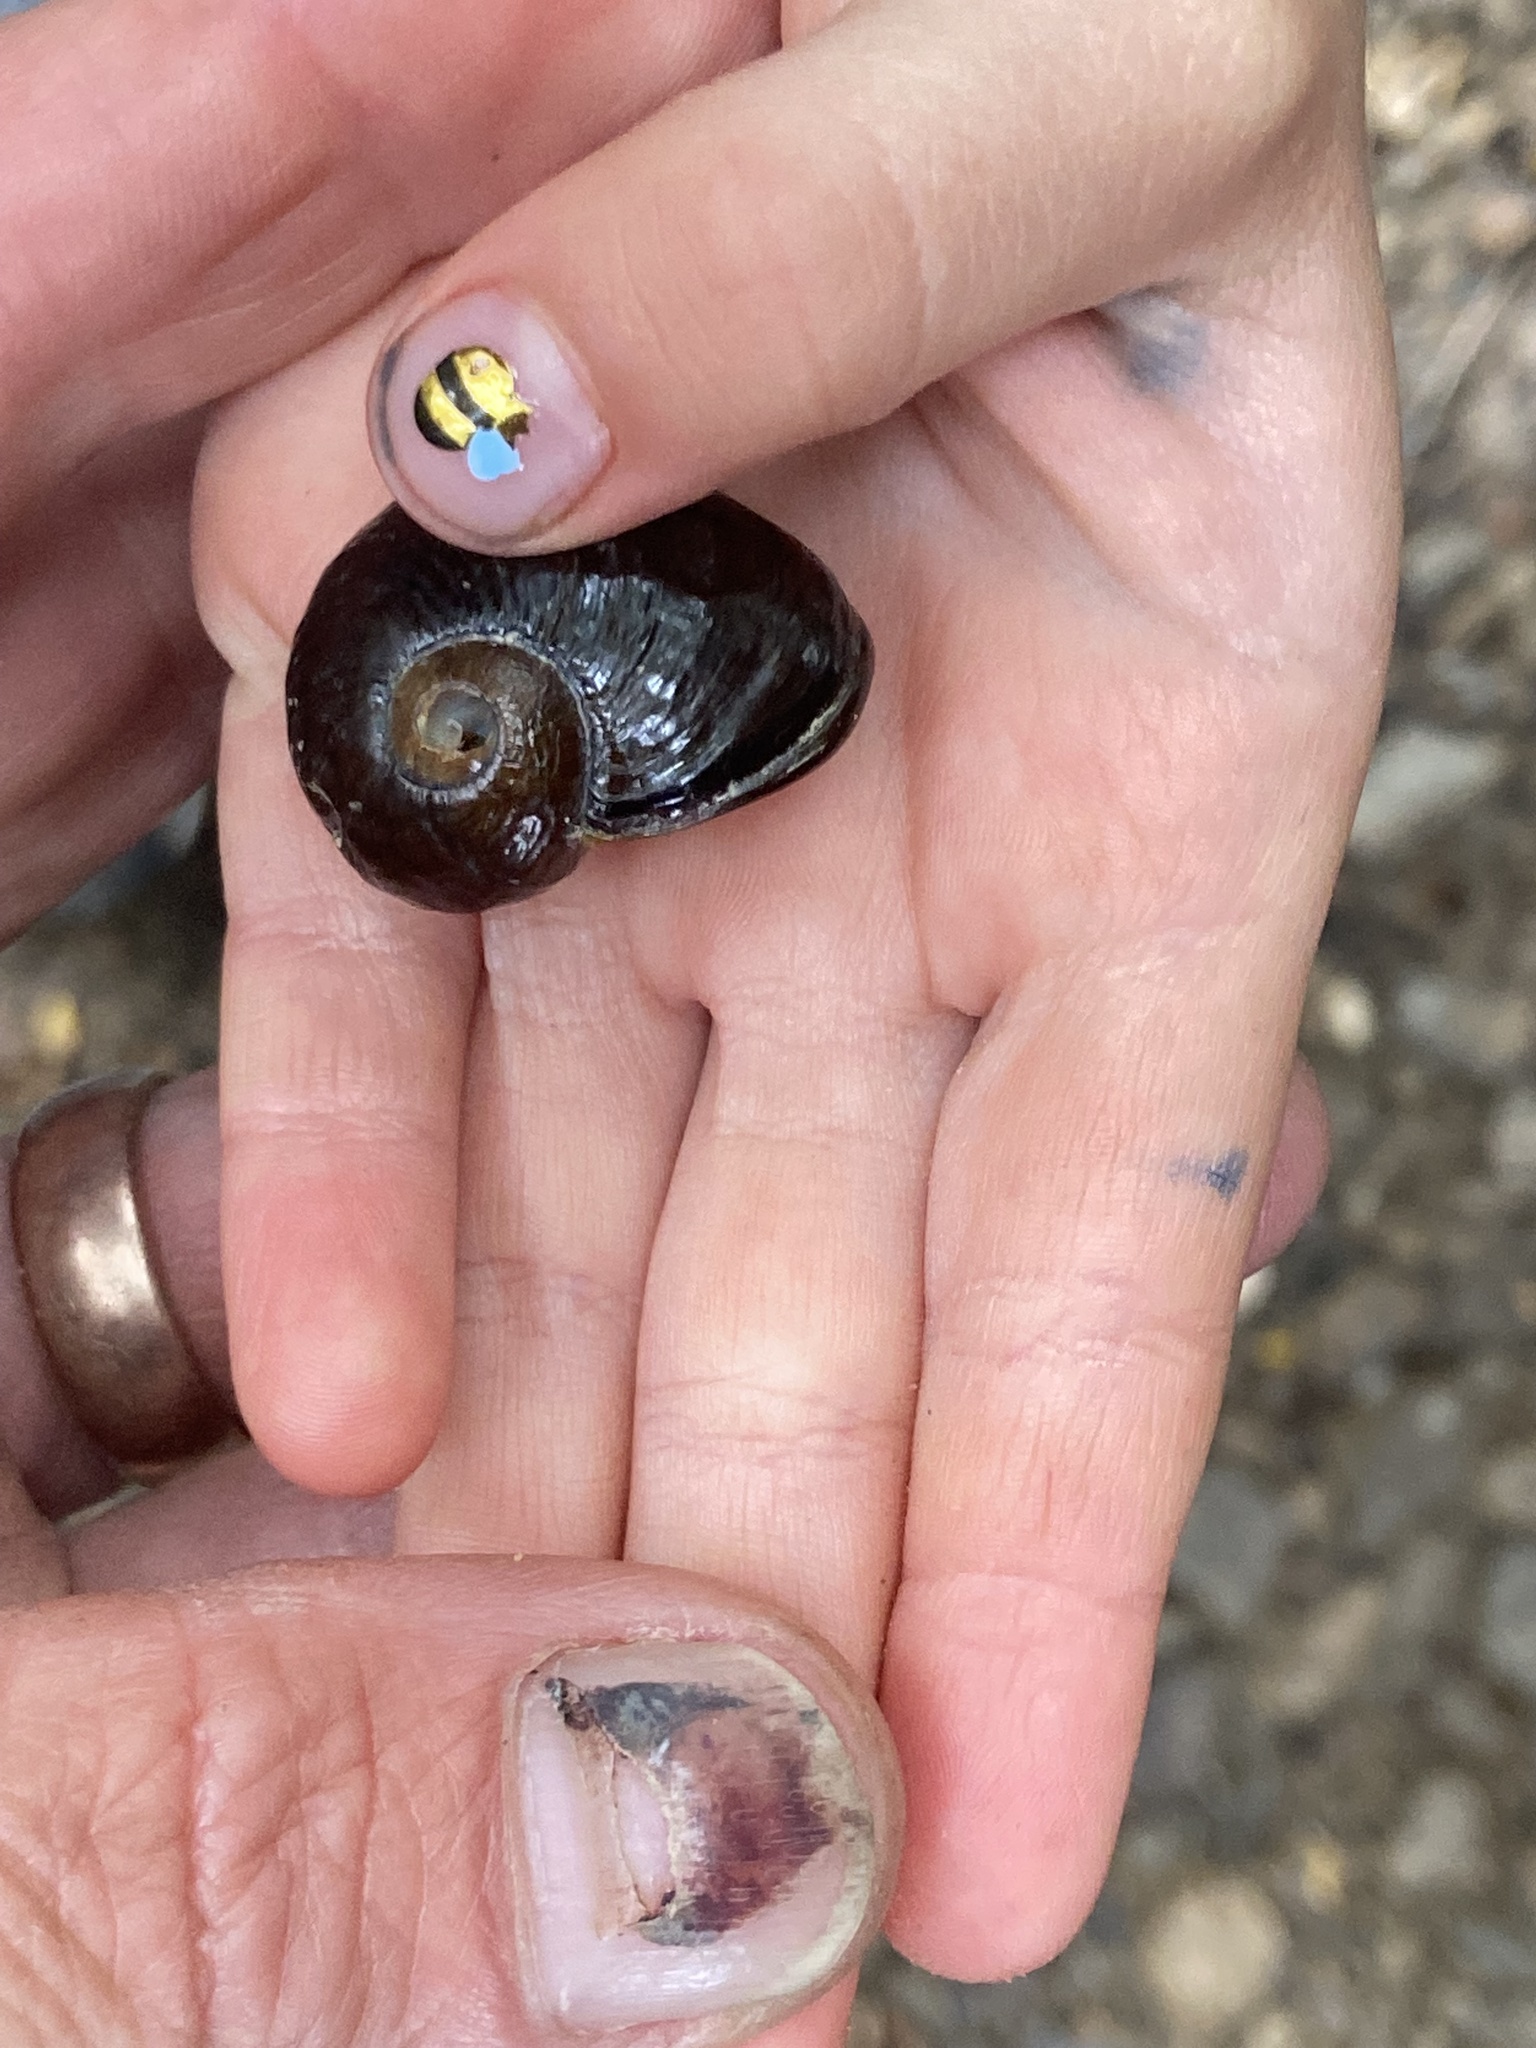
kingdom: Animalia
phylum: Mollusca
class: Gastropoda
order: Stylommatophora
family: Rhytididae
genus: Wainuia
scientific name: Wainuia edwardi
